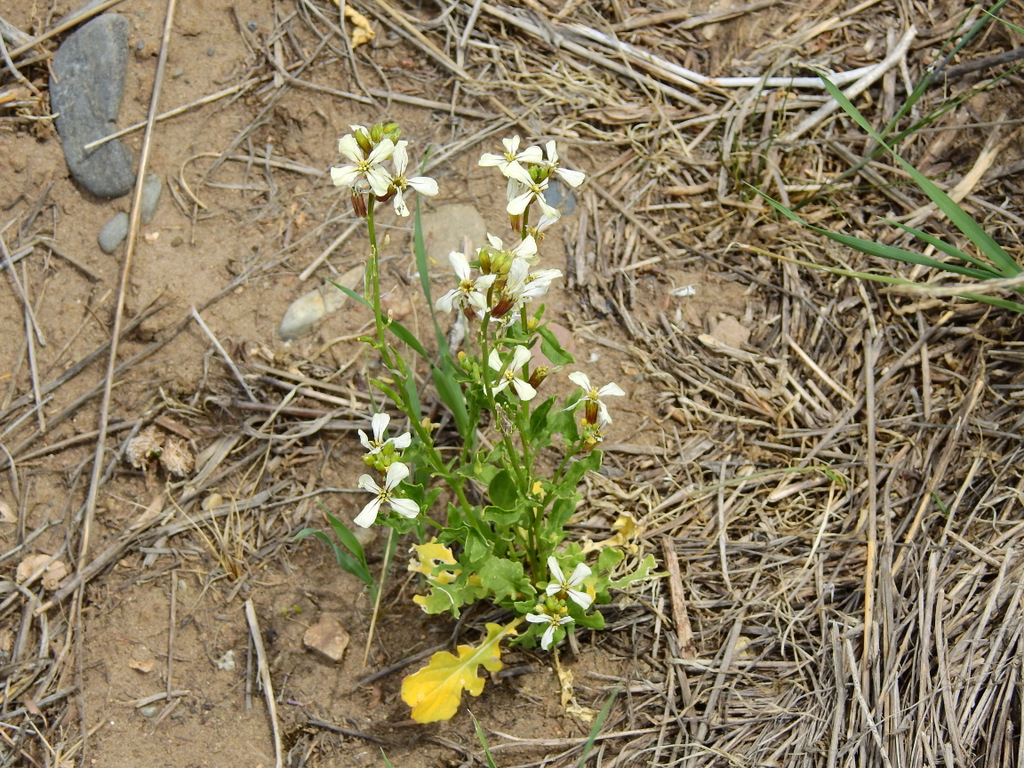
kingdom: Plantae
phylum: Tracheophyta
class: Magnoliopsida
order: Brassicales
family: Brassicaceae
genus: Eruca
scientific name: Eruca vesicaria
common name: Garden rocket
